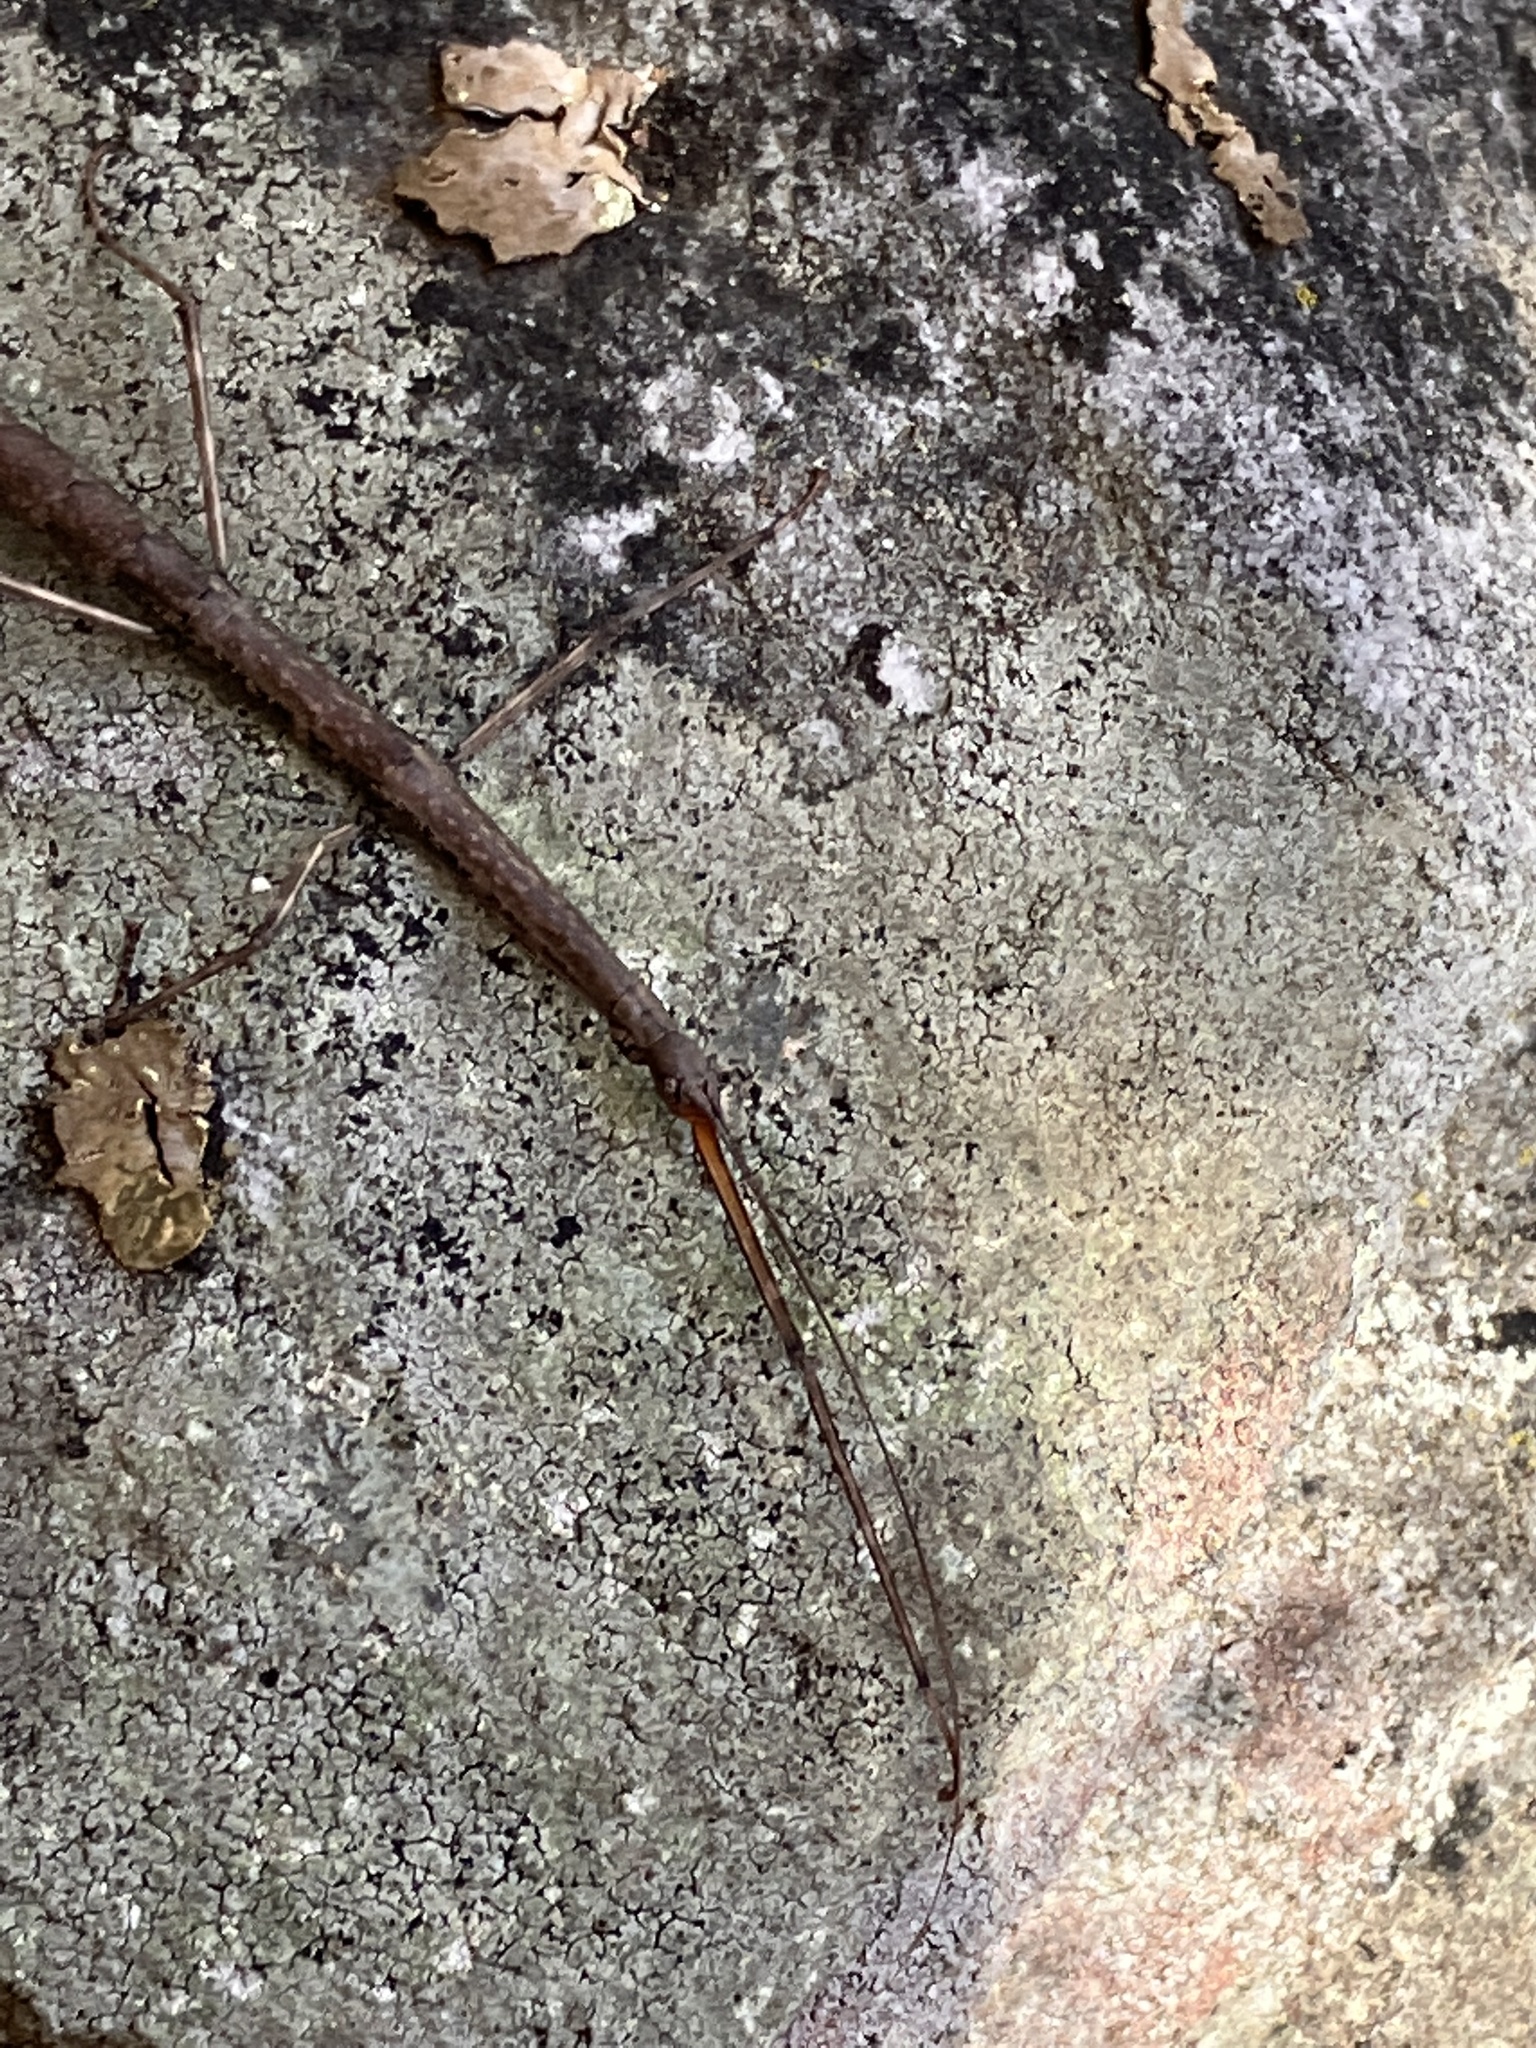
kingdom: Animalia
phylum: Arthropoda
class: Insecta
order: Phasmida
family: Diapheromeridae
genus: Diapheromera
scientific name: Diapheromera femorata
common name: Common american walkingstick
